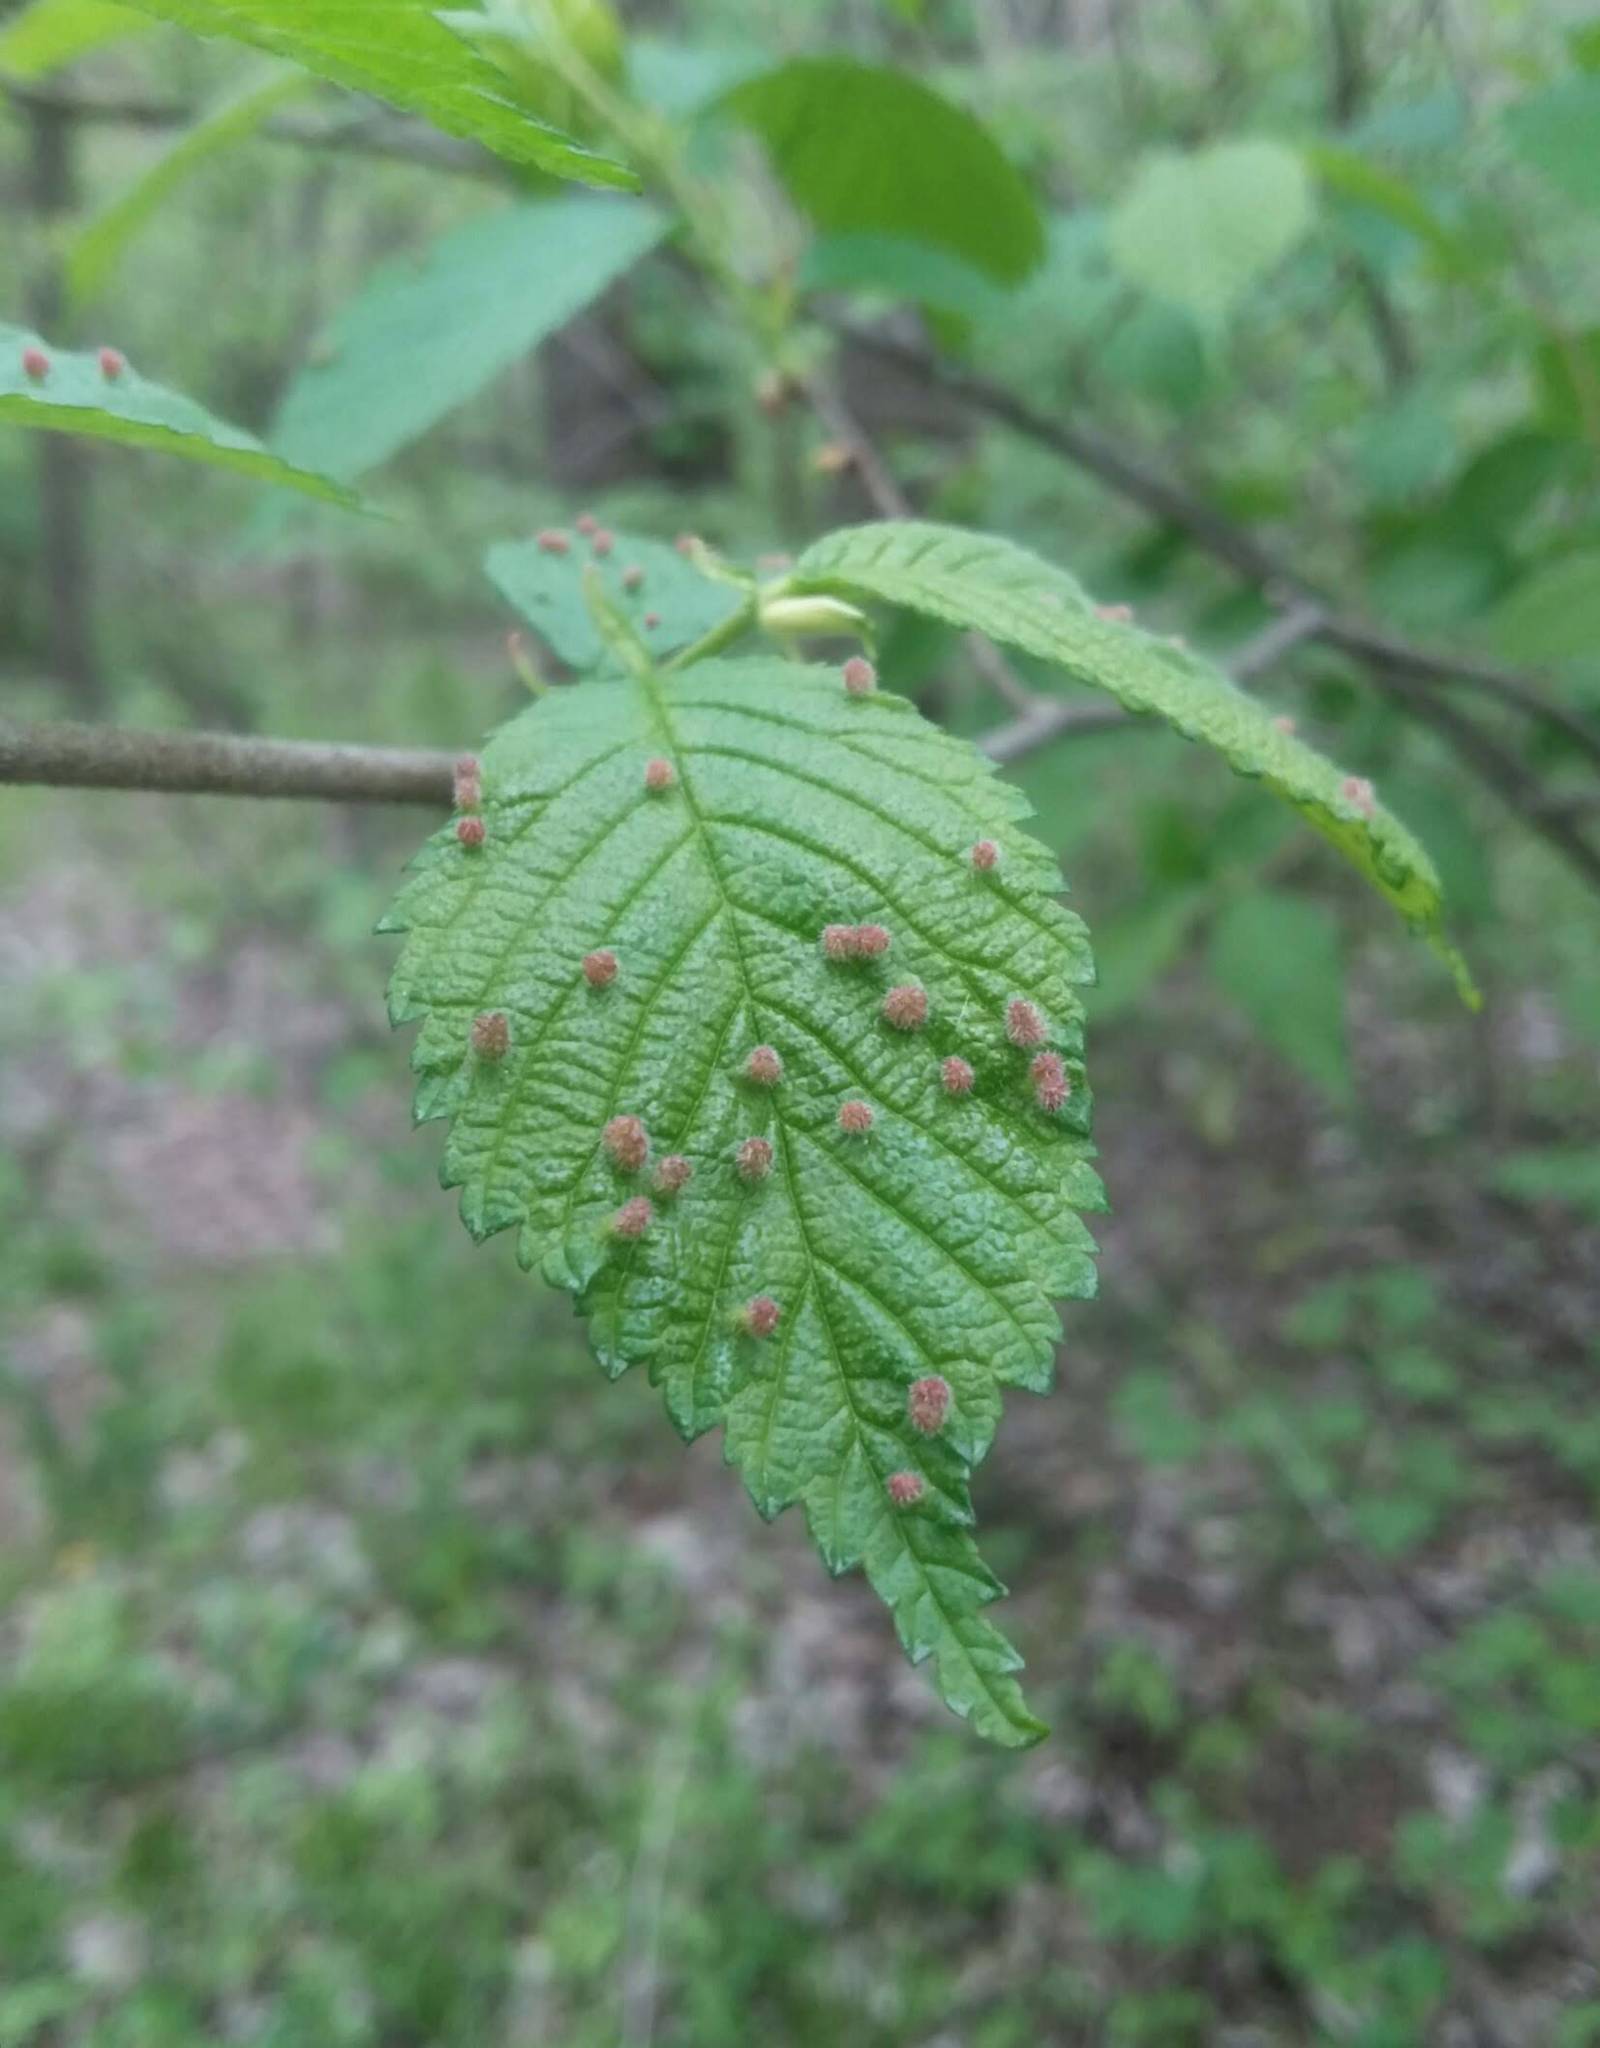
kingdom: Animalia
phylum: Arthropoda
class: Arachnida
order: Trombidiformes
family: Eriophyidae
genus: Aceria
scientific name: Aceria
